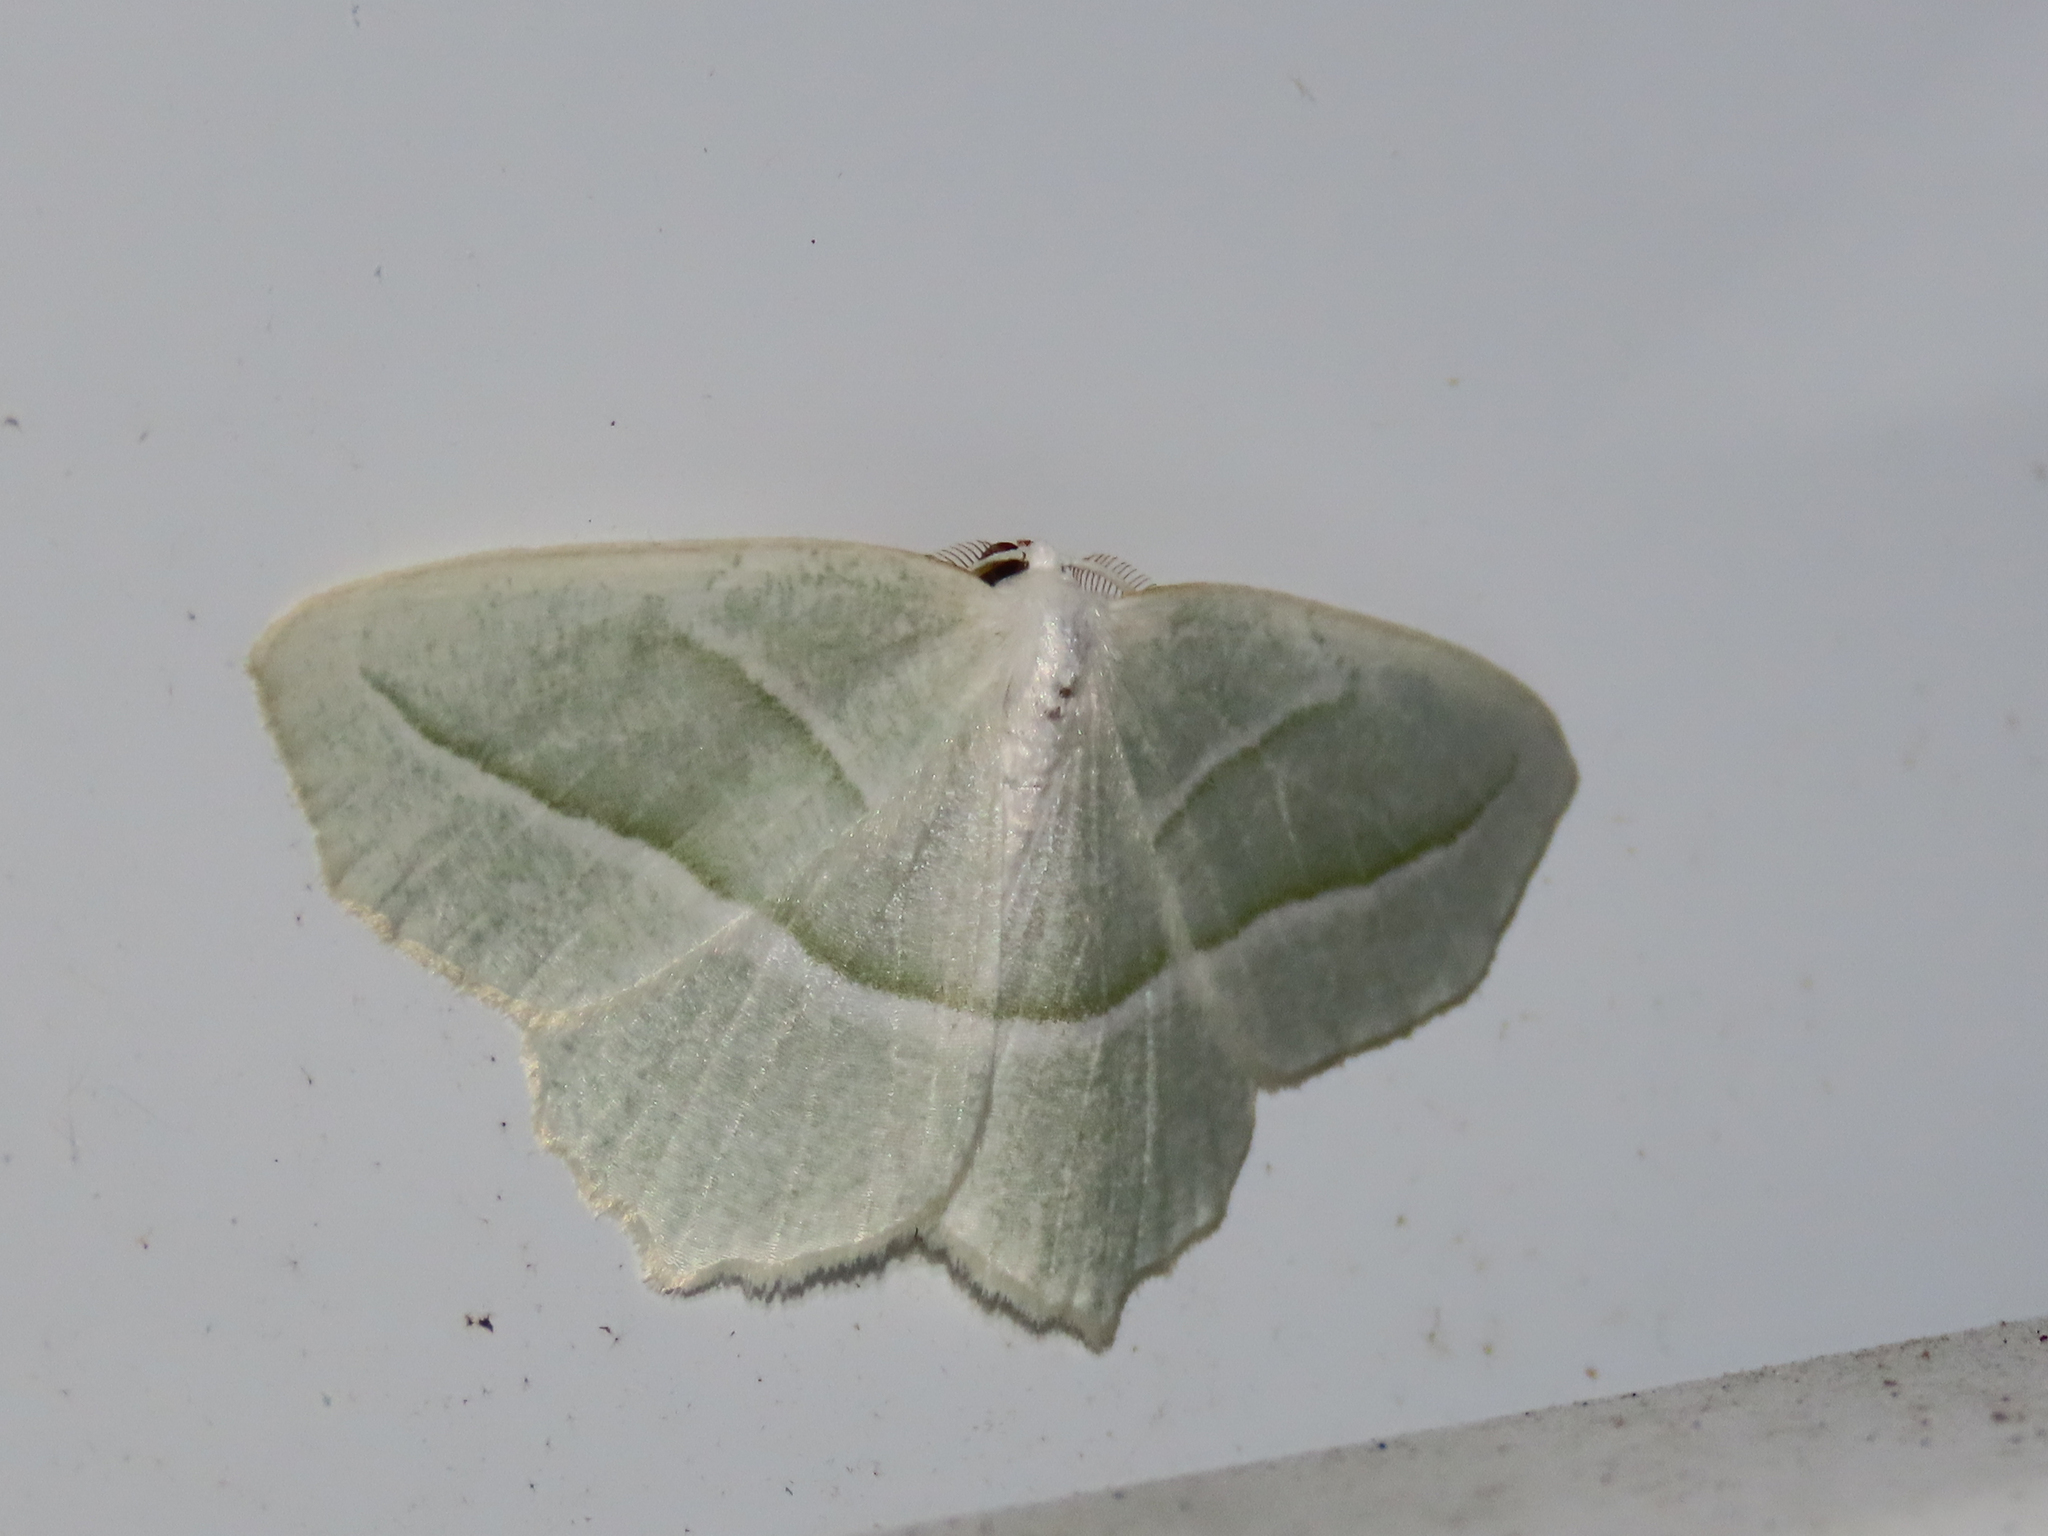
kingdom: Animalia
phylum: Arthropoda
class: Insecta
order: Lepidoptera
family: Geometridae
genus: Campaea
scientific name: Campaea perlata
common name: Fringed looper
